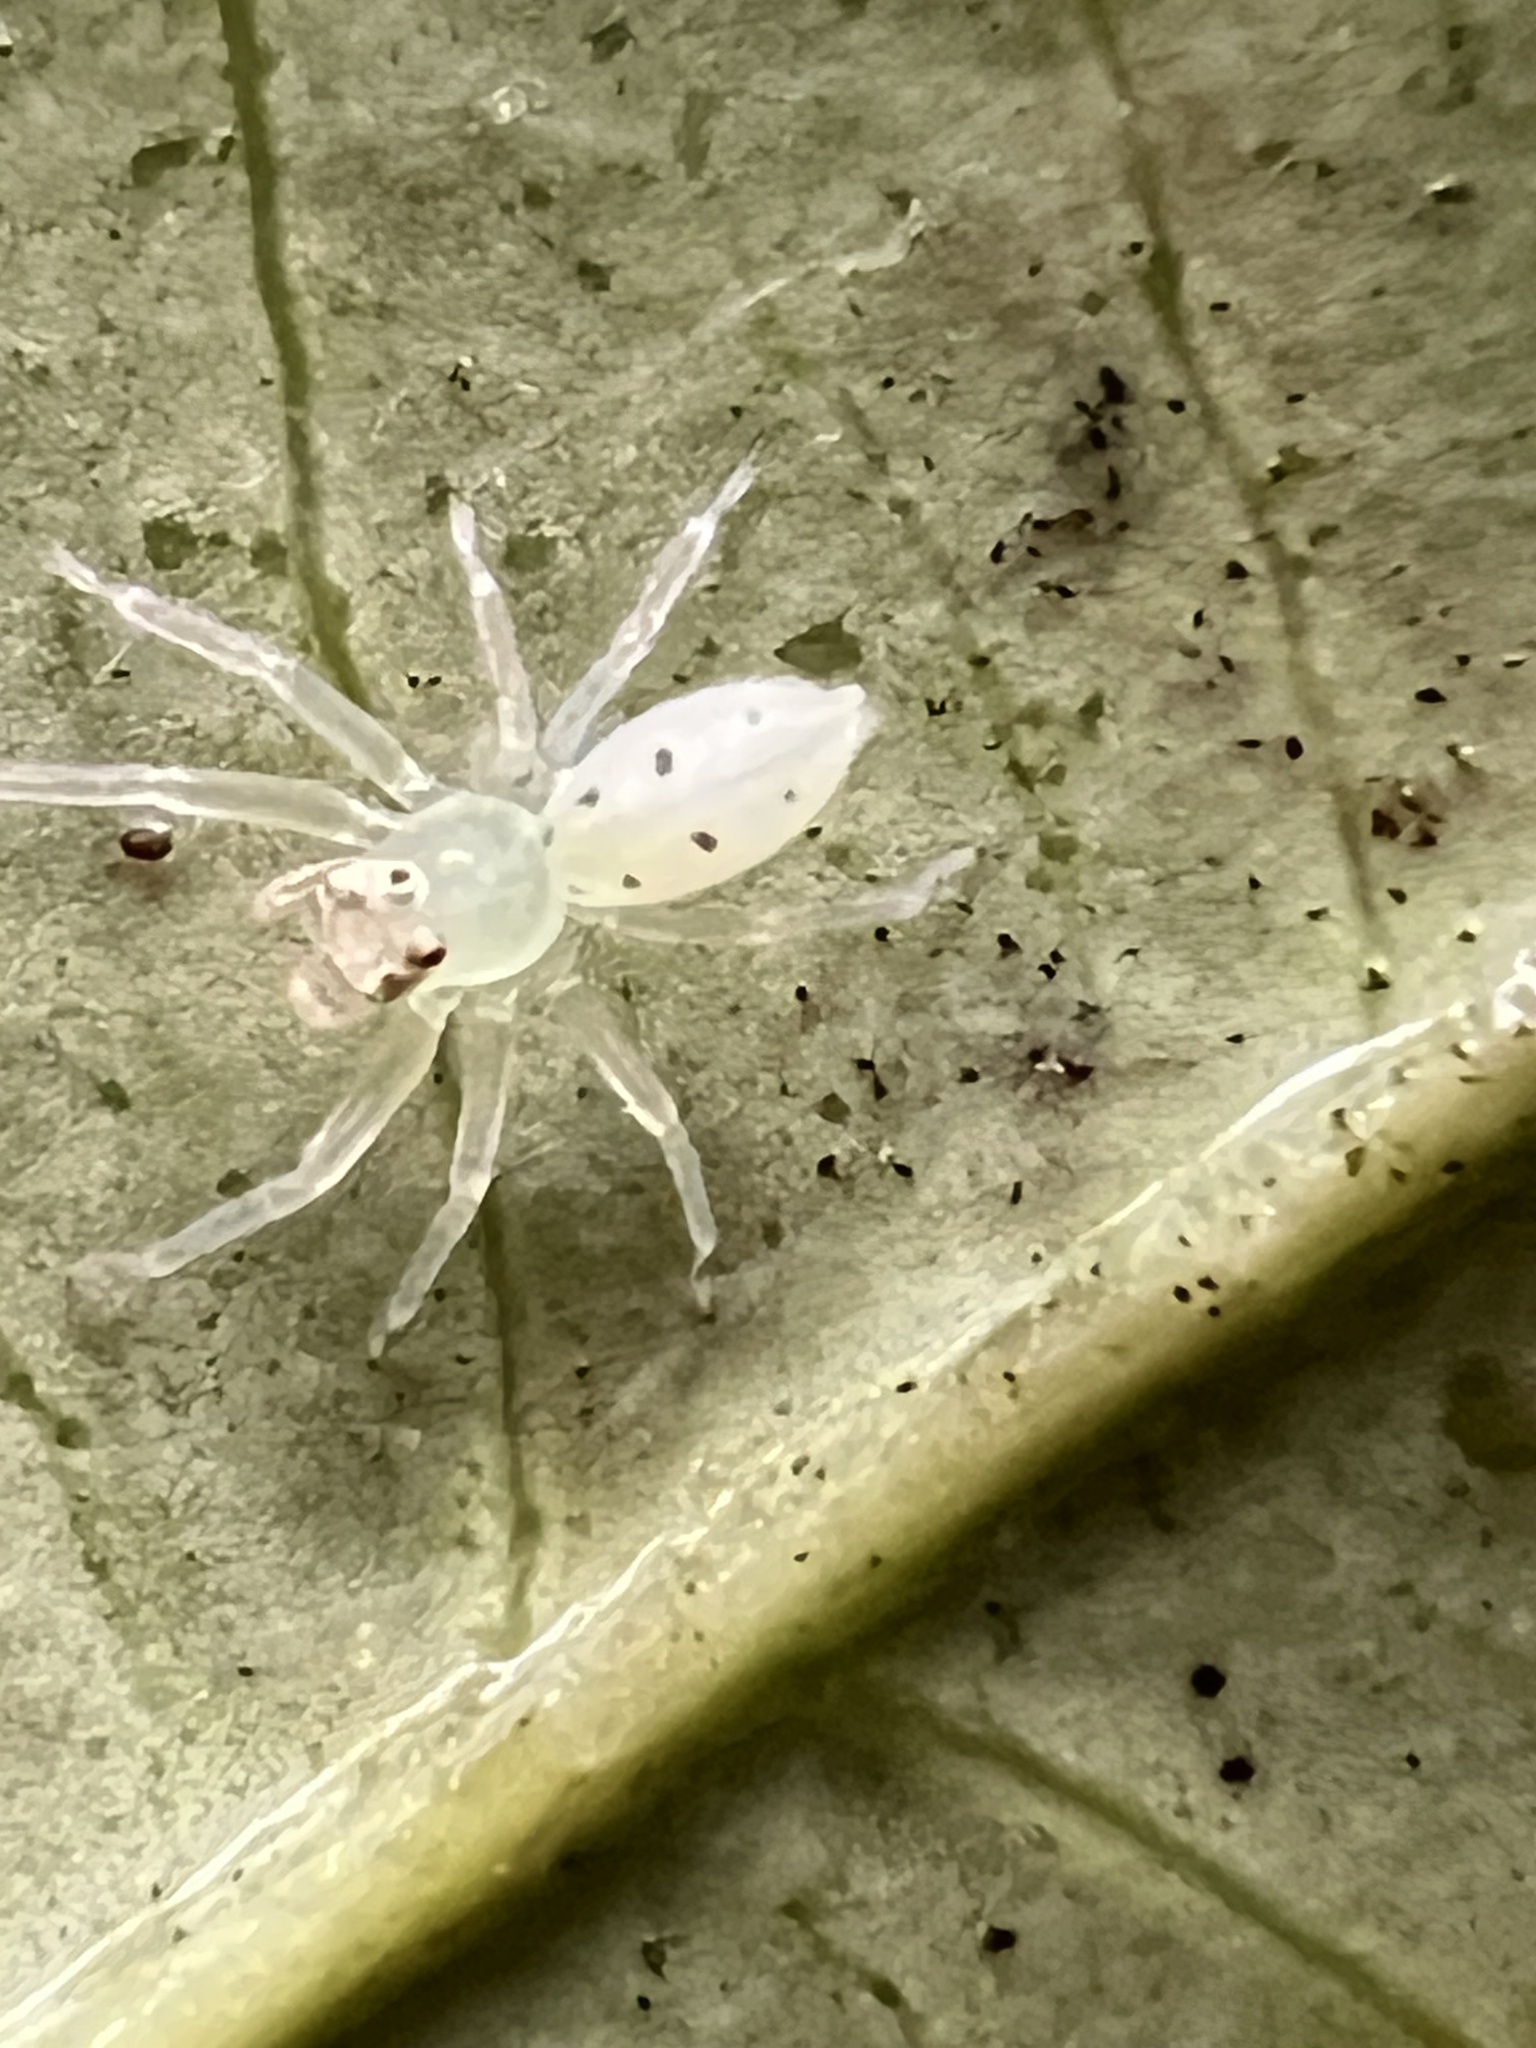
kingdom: Animalia
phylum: Arthropoda
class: Arachnida
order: Araneae
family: Salticidae
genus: Lyssomanes
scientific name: Lyssomanes viridis
